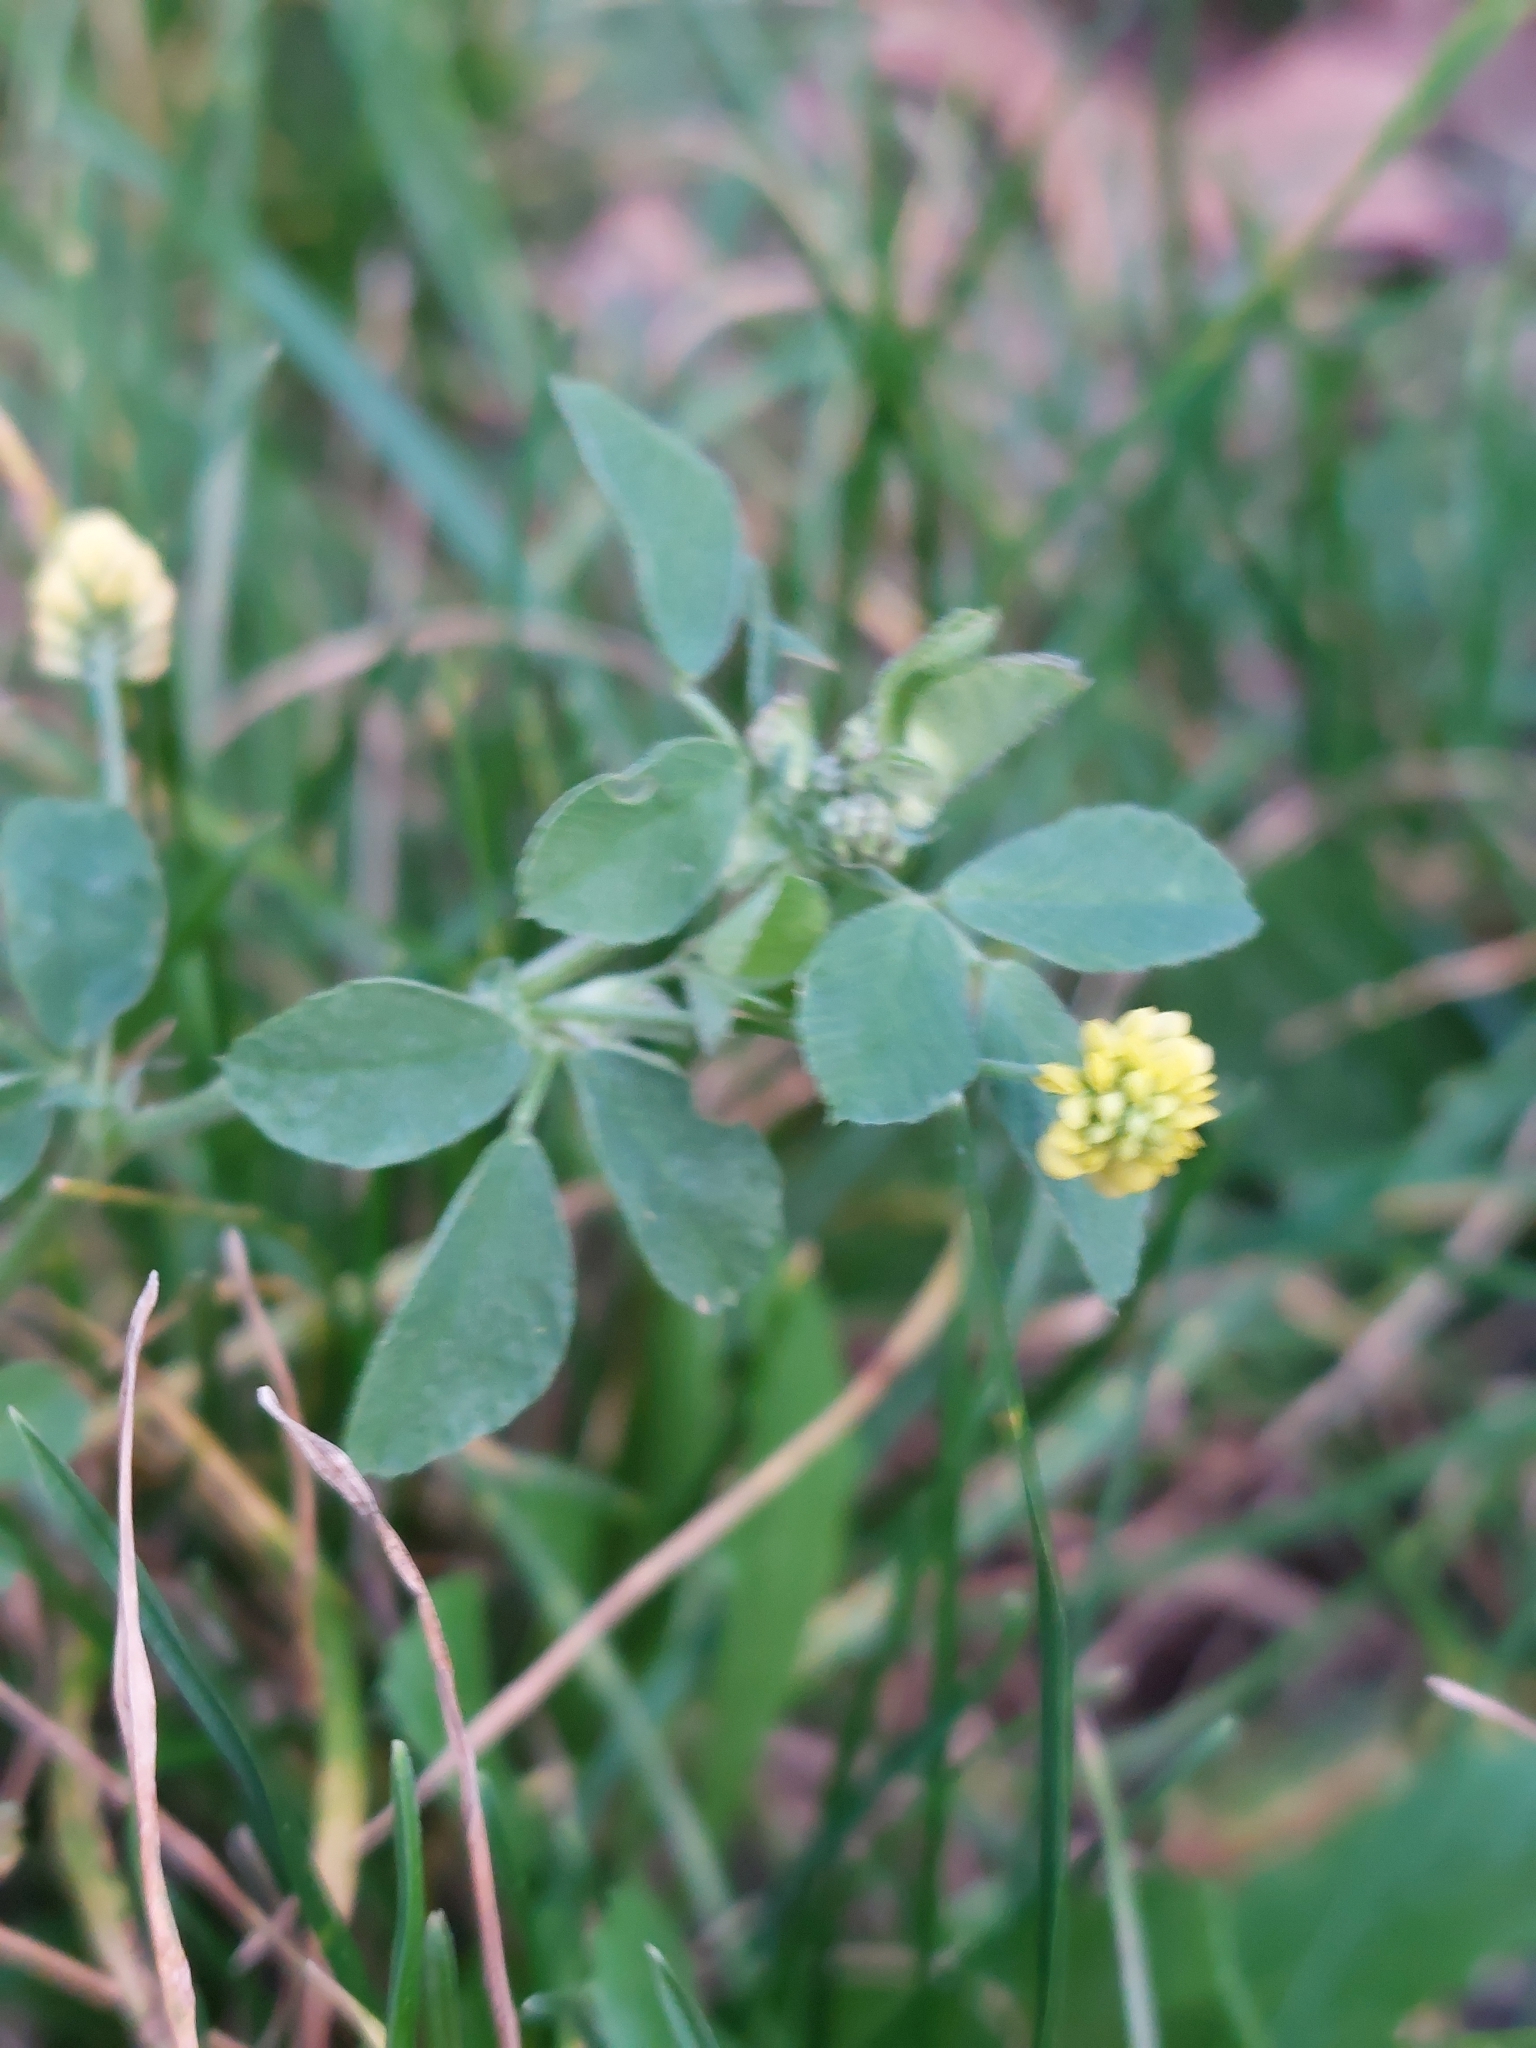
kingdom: Plantae
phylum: Tracheophyta
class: Magnoliopsida
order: Fabales
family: Fabaceae
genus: Medicago
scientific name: Medicago lupulina
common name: Black medick
